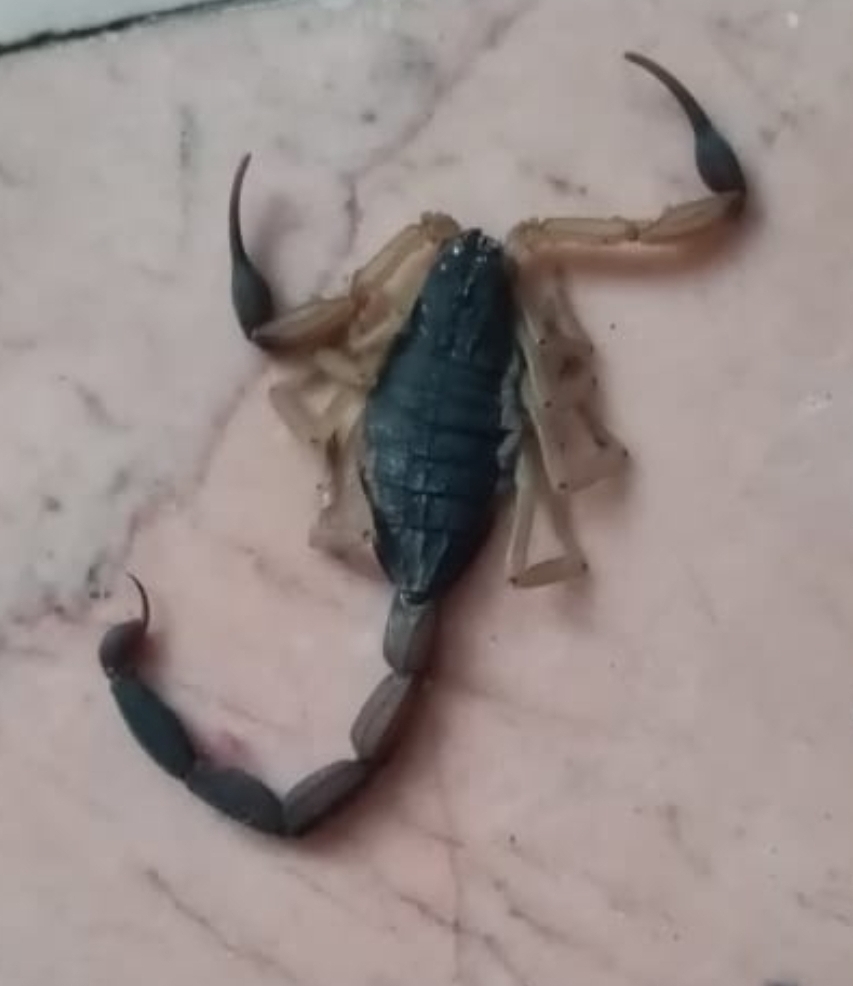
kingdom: Animalia
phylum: Arthropoda
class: Arachnida
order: Scorpiones
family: Buthidae
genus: Centruroides
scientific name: Centruroides nigrimanus
